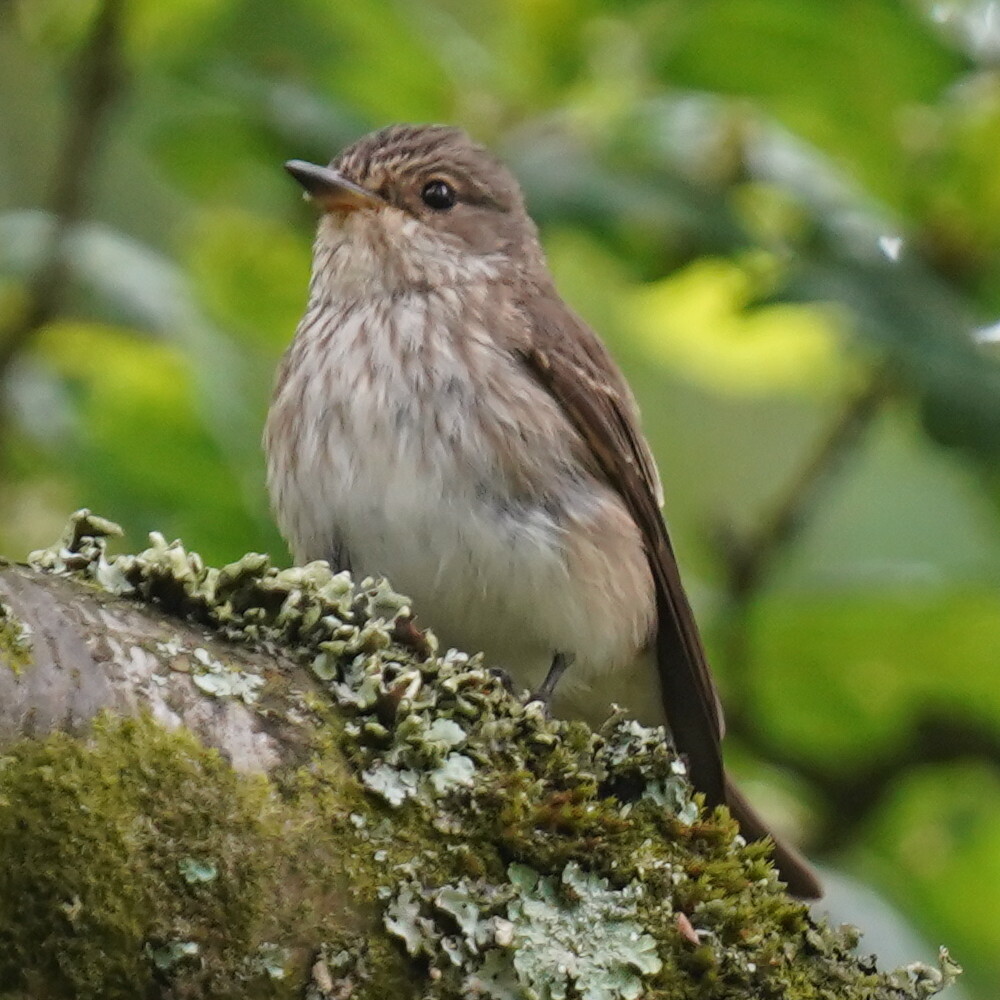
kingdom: Animalia
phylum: Chordata
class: Aves
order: Passeriformes
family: Muscicapidae
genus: Muscicapa
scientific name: Muscicapa striata
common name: Spotted flycatcher
